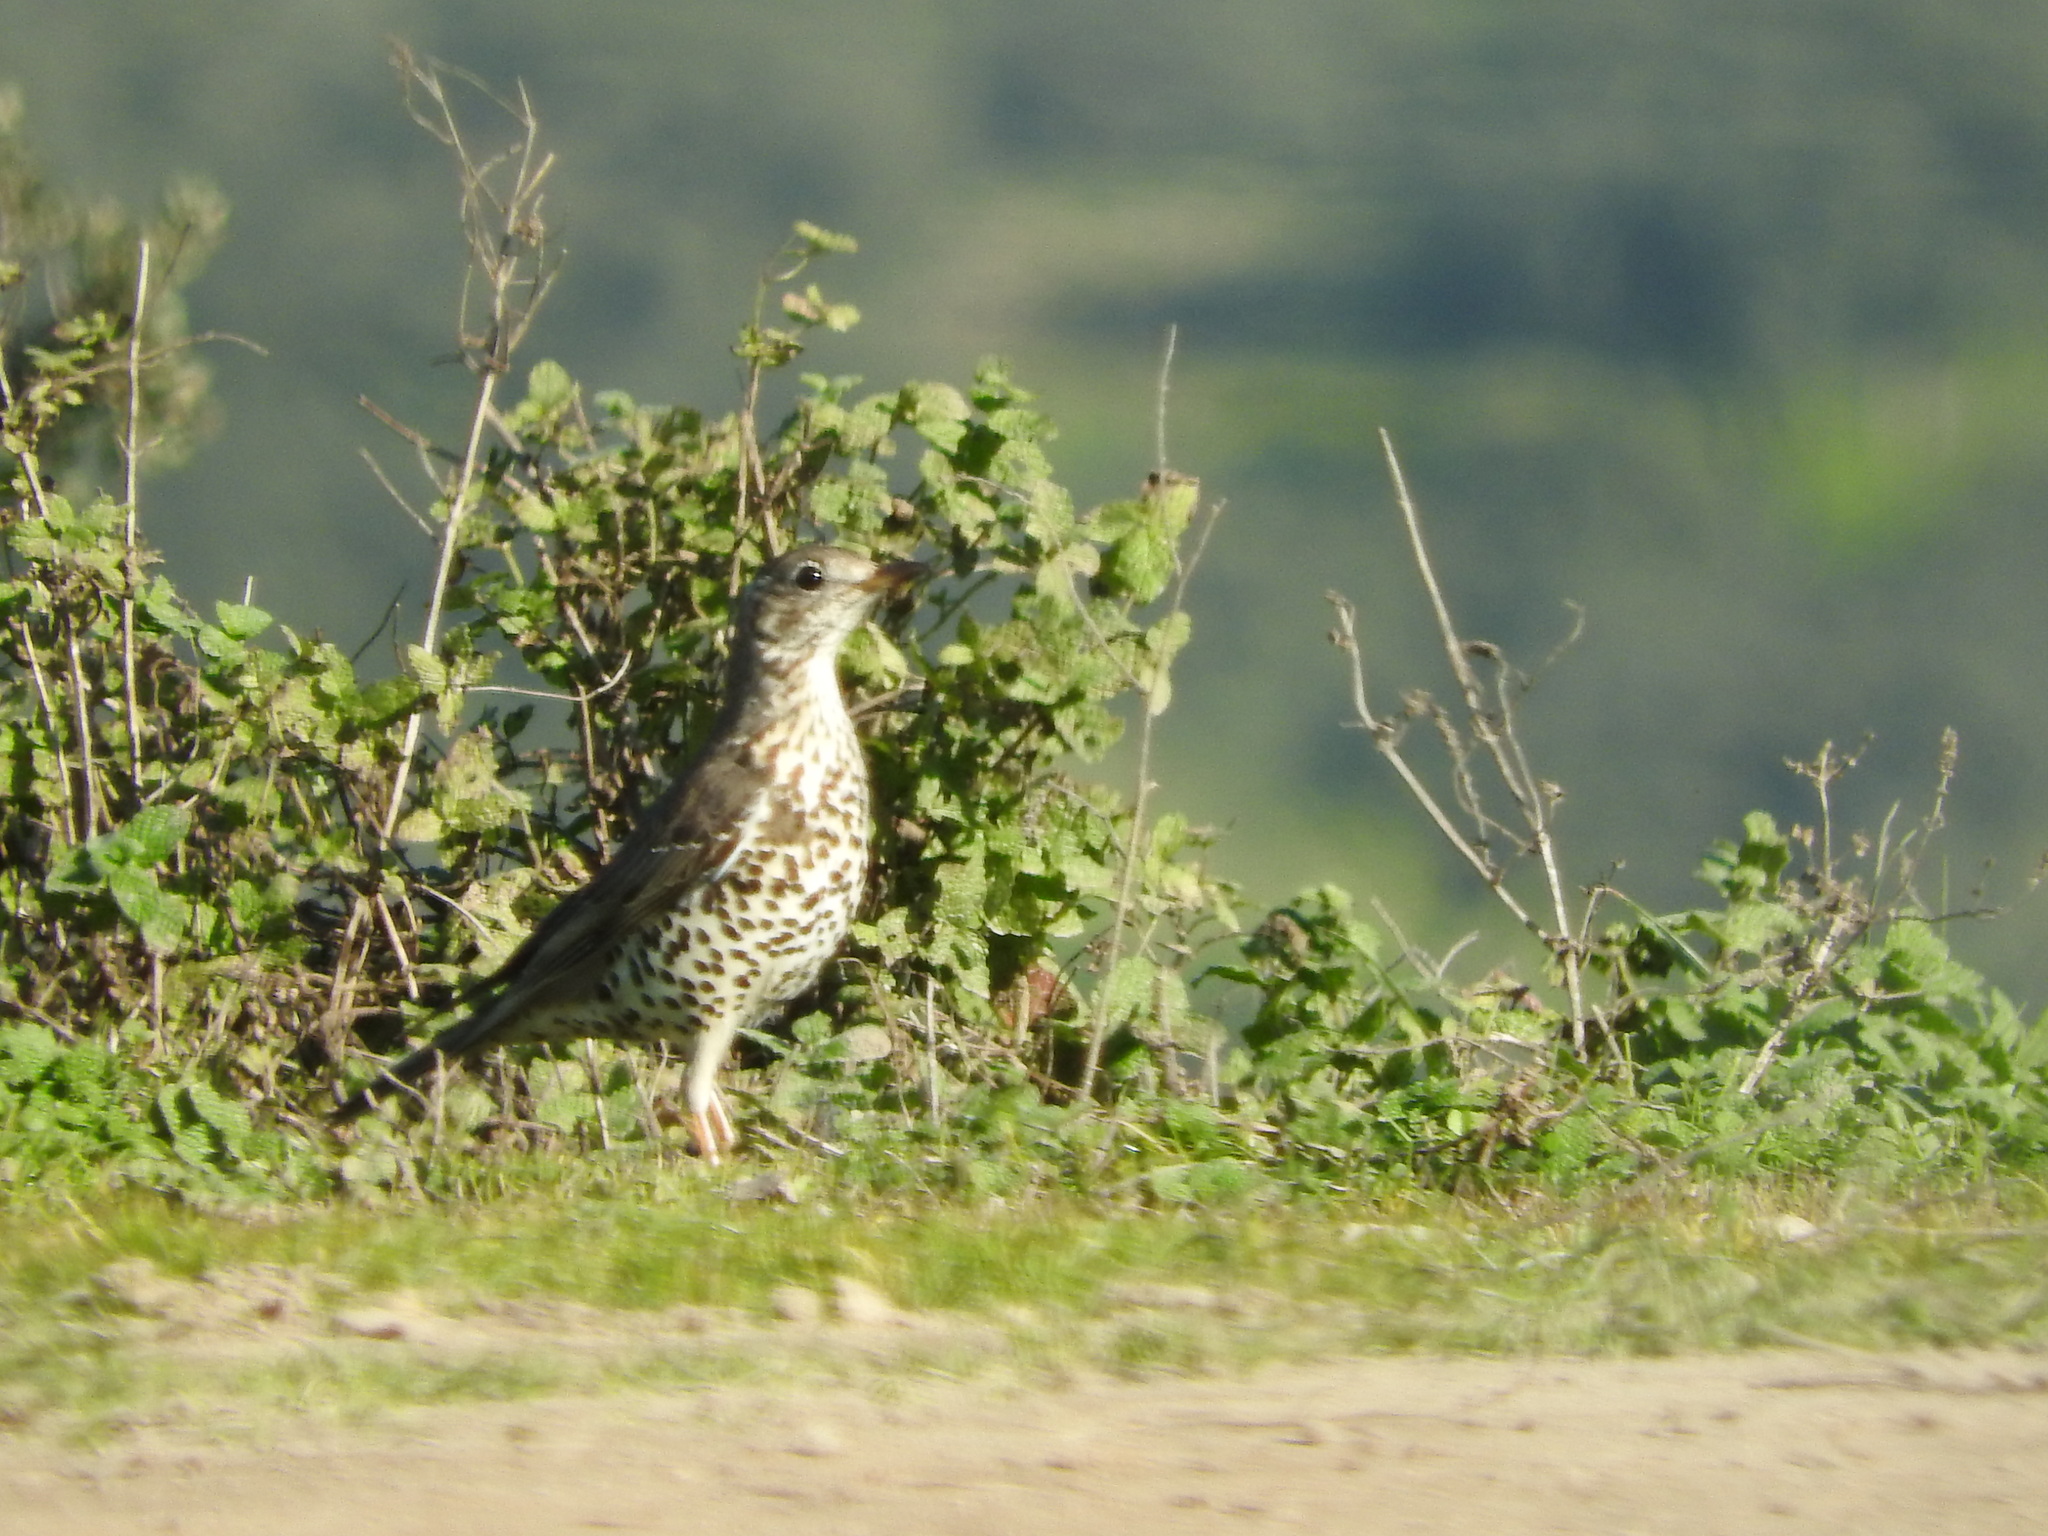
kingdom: Animalia
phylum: Chordata
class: Aves
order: Passeriformes
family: Turdidae
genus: Turdus
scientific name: Turdus viscivorus
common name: Mistle thrush
